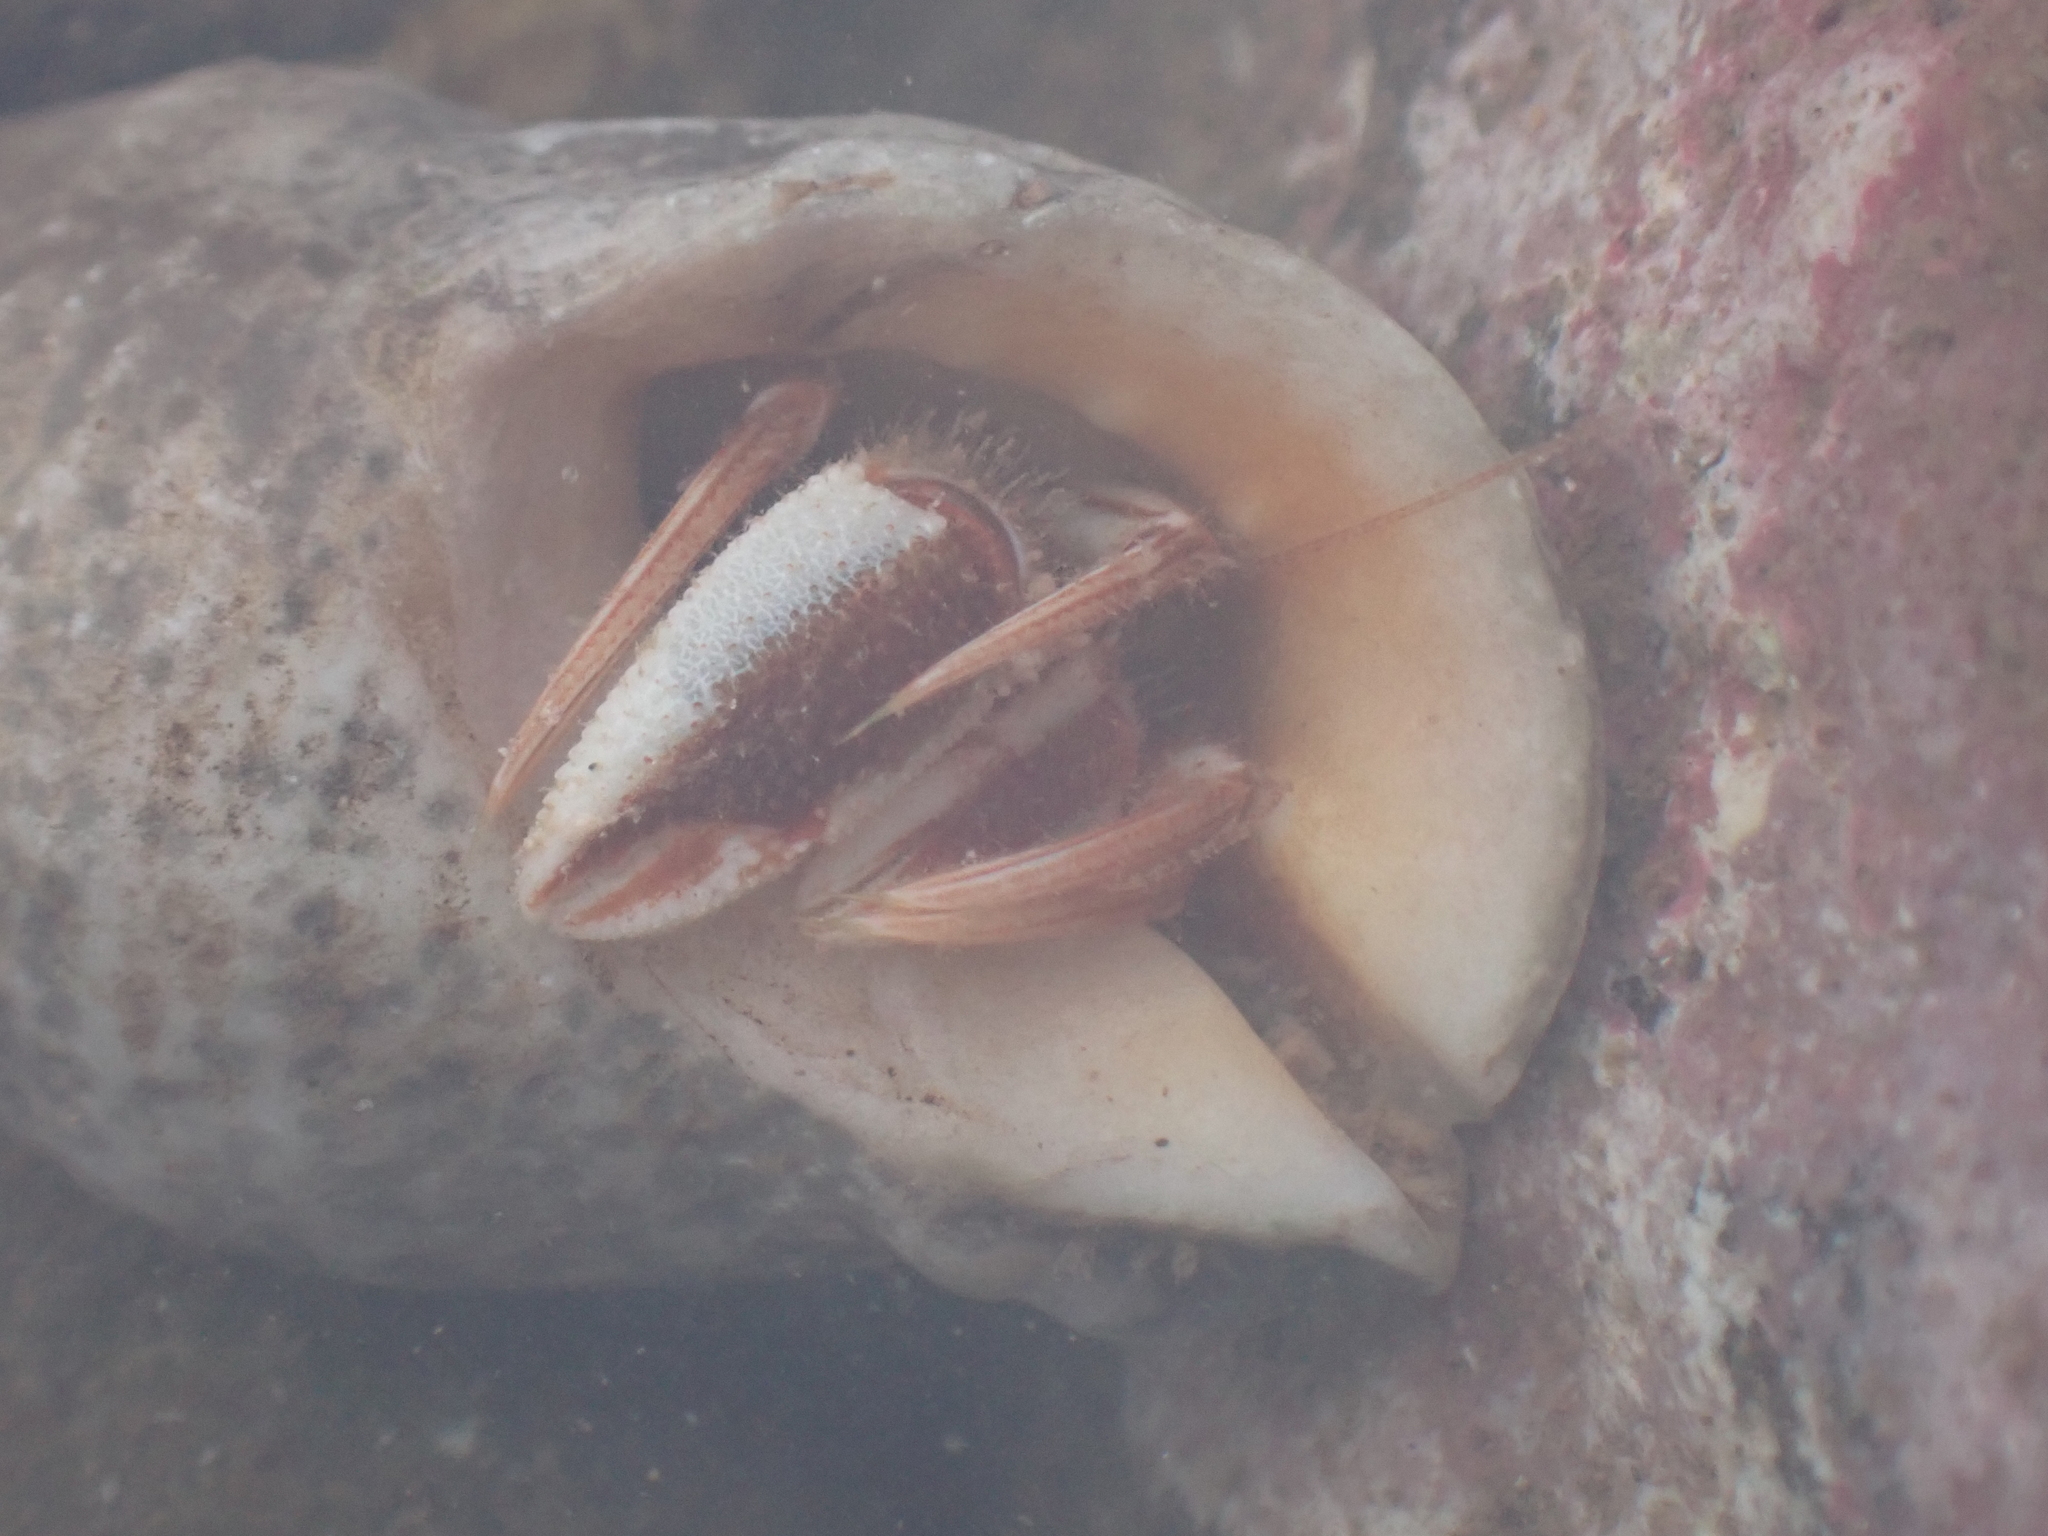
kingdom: Animalia
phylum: Arthropoda
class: Malacostraca
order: Decapoda
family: Paguridae
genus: Pagurus
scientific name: Pagurus acadianus
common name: Acadian hermit crab
